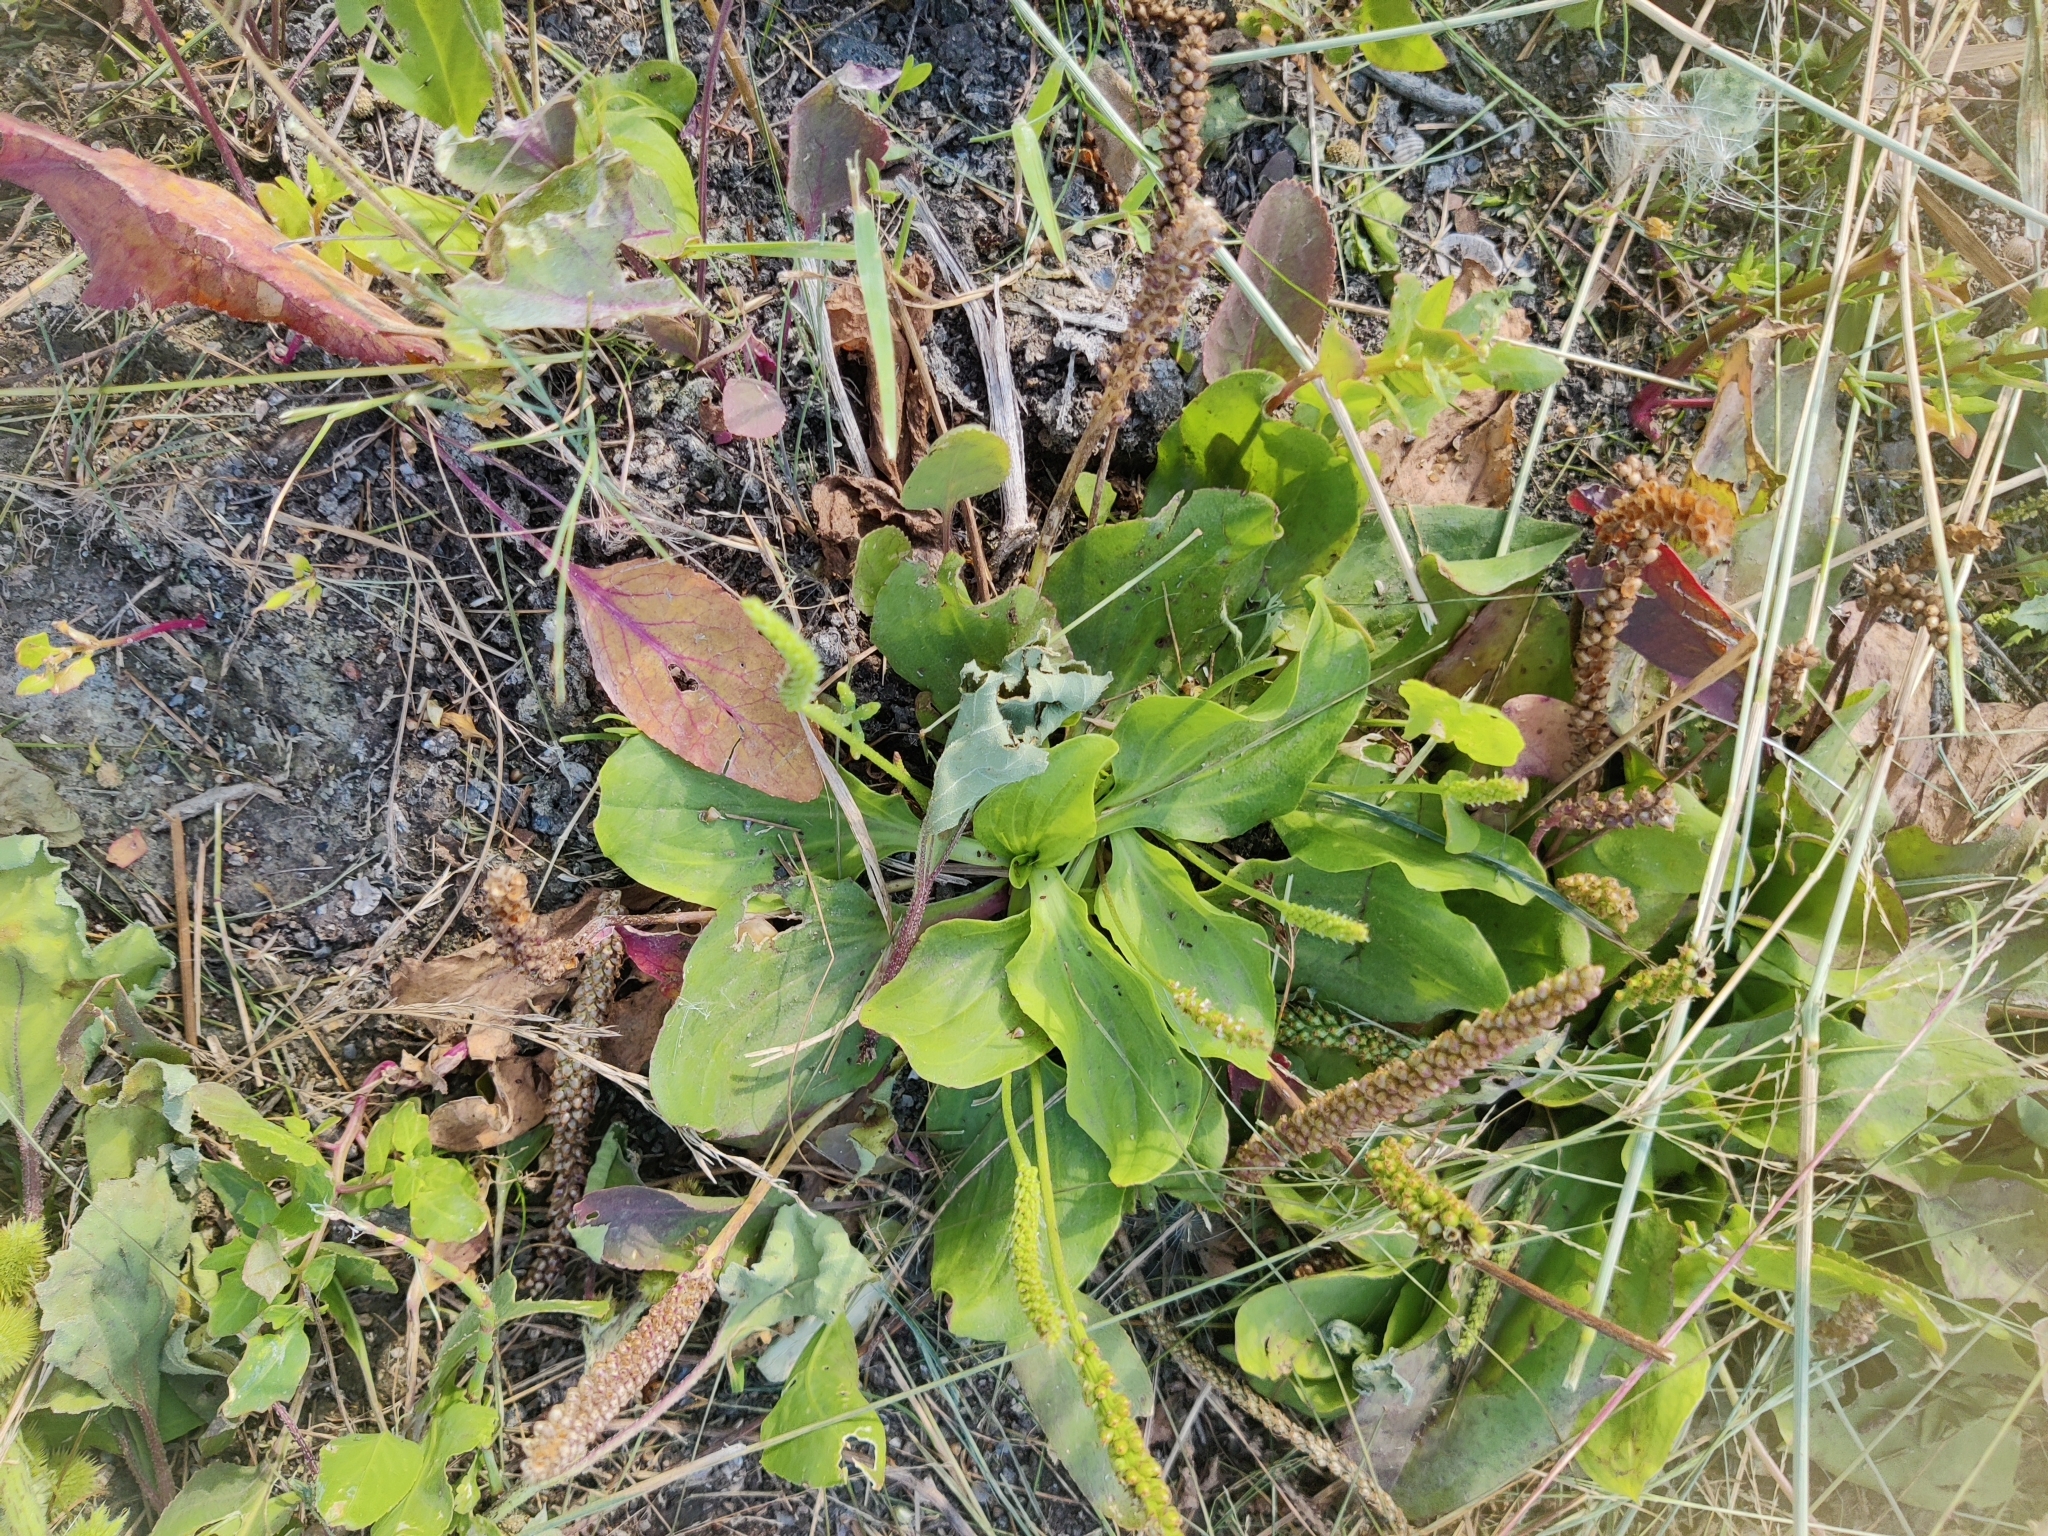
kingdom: Plantae
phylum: Tracheophyta
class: Magnoliopsida
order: Lamiales
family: Plantaginaceae
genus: Plantago
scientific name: Plantago major
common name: Common plantain
